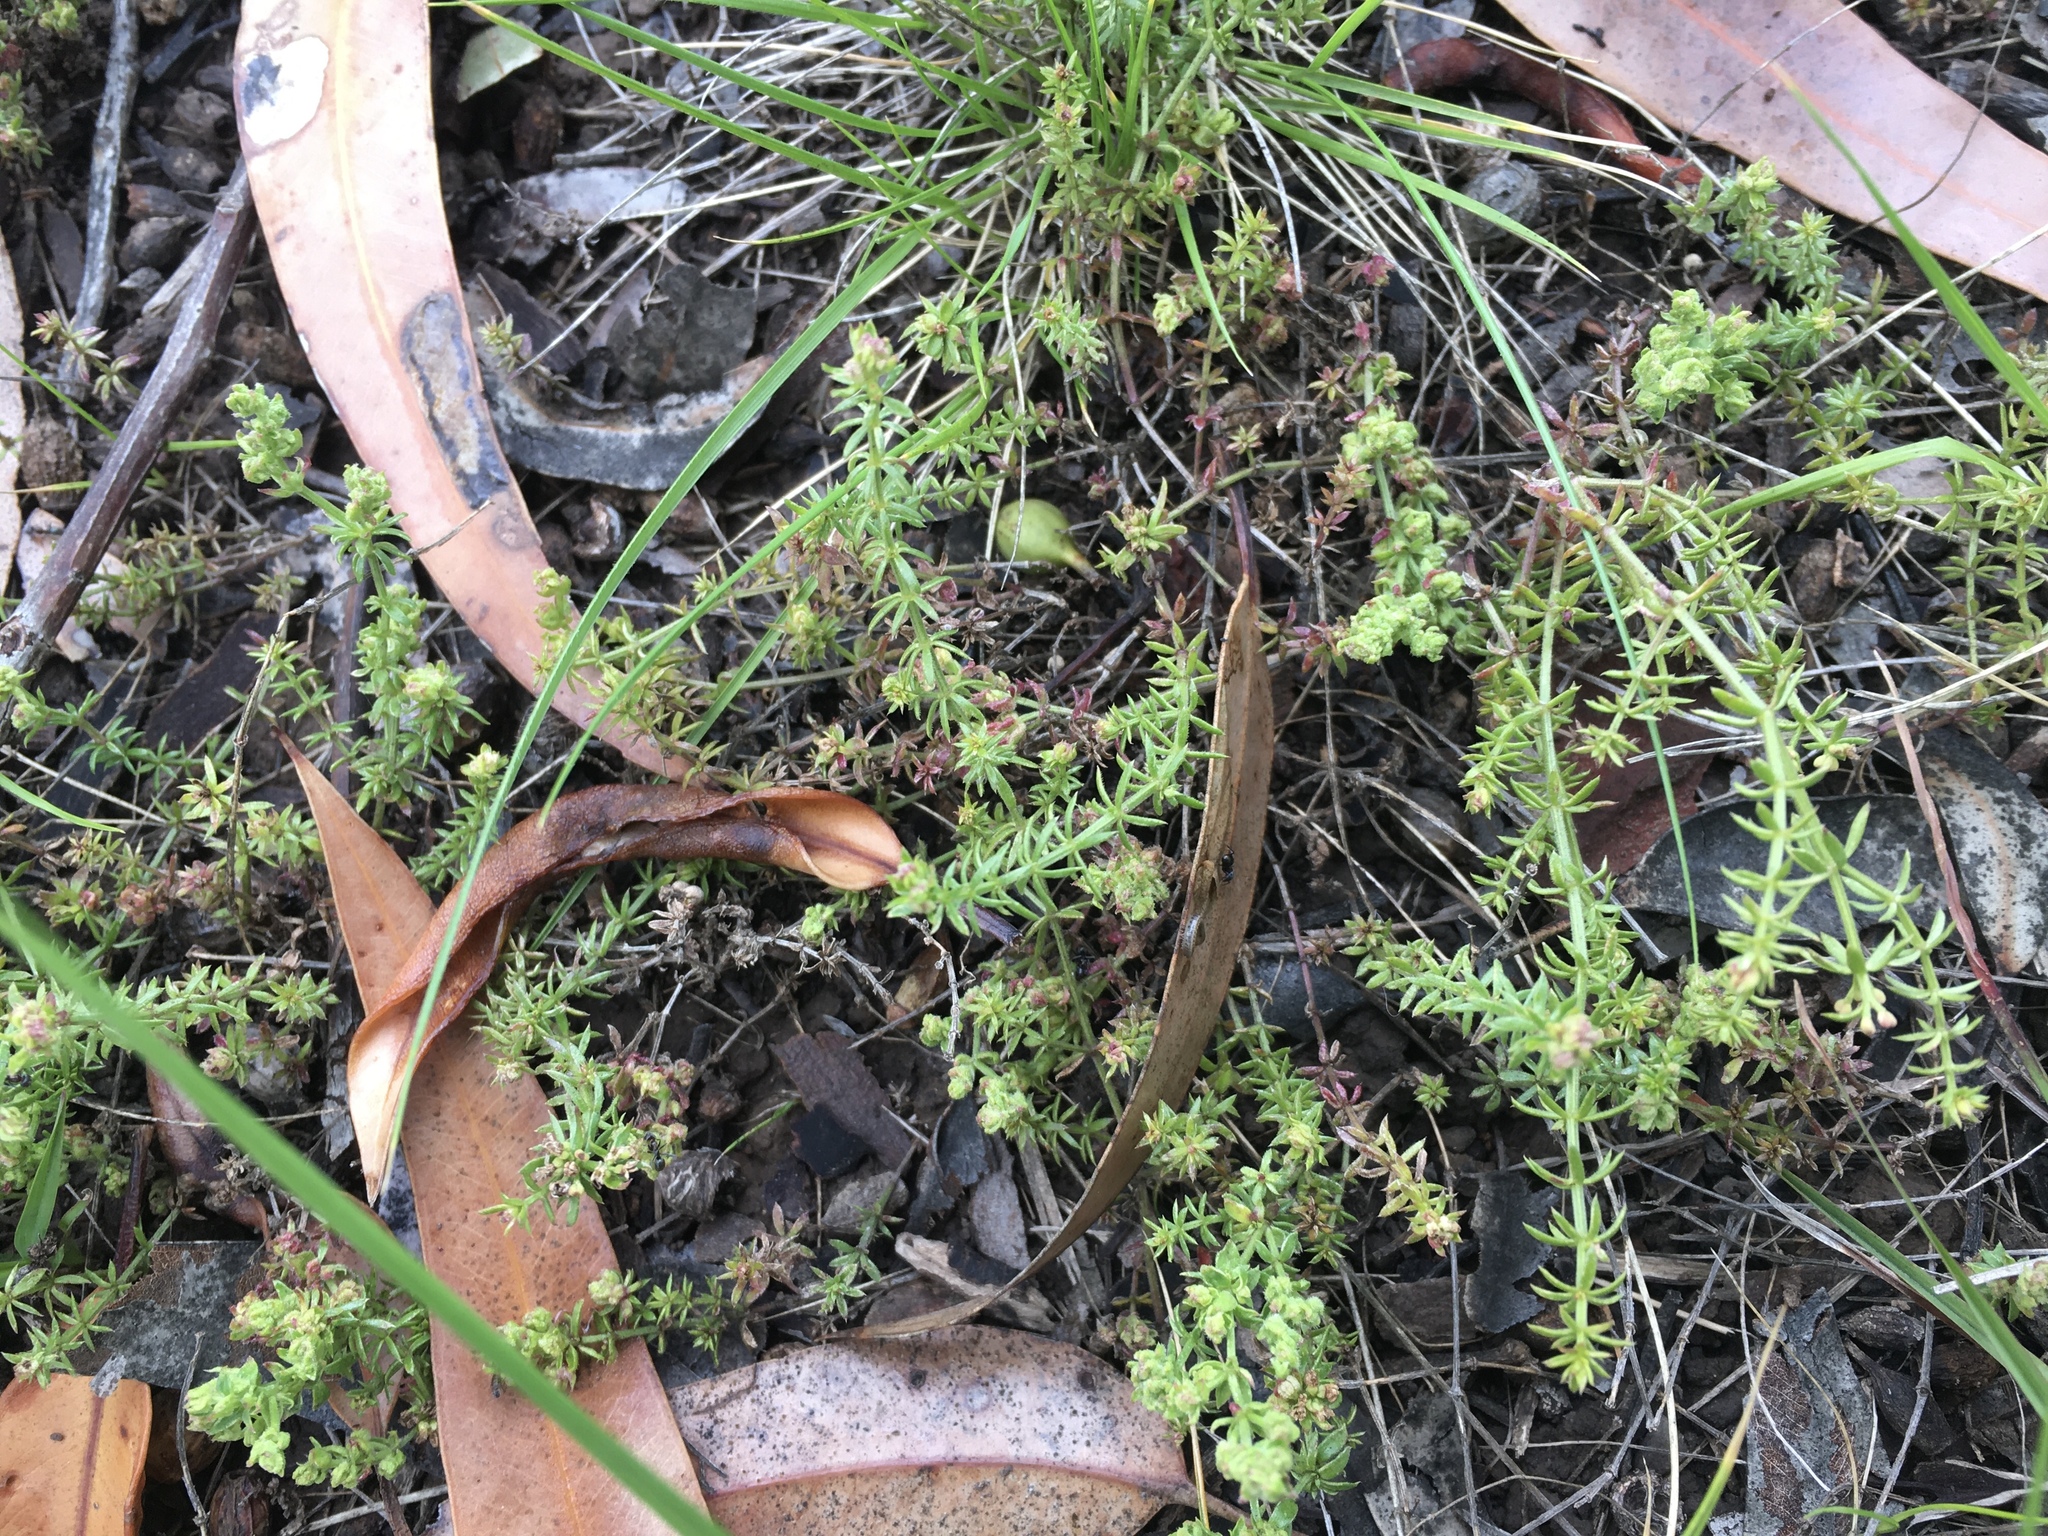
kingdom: Plantae
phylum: Tracheophyta
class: Magnoliopsida
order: Gentianales
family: Rubiaceae
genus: Asperula
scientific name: Asperula conferta
